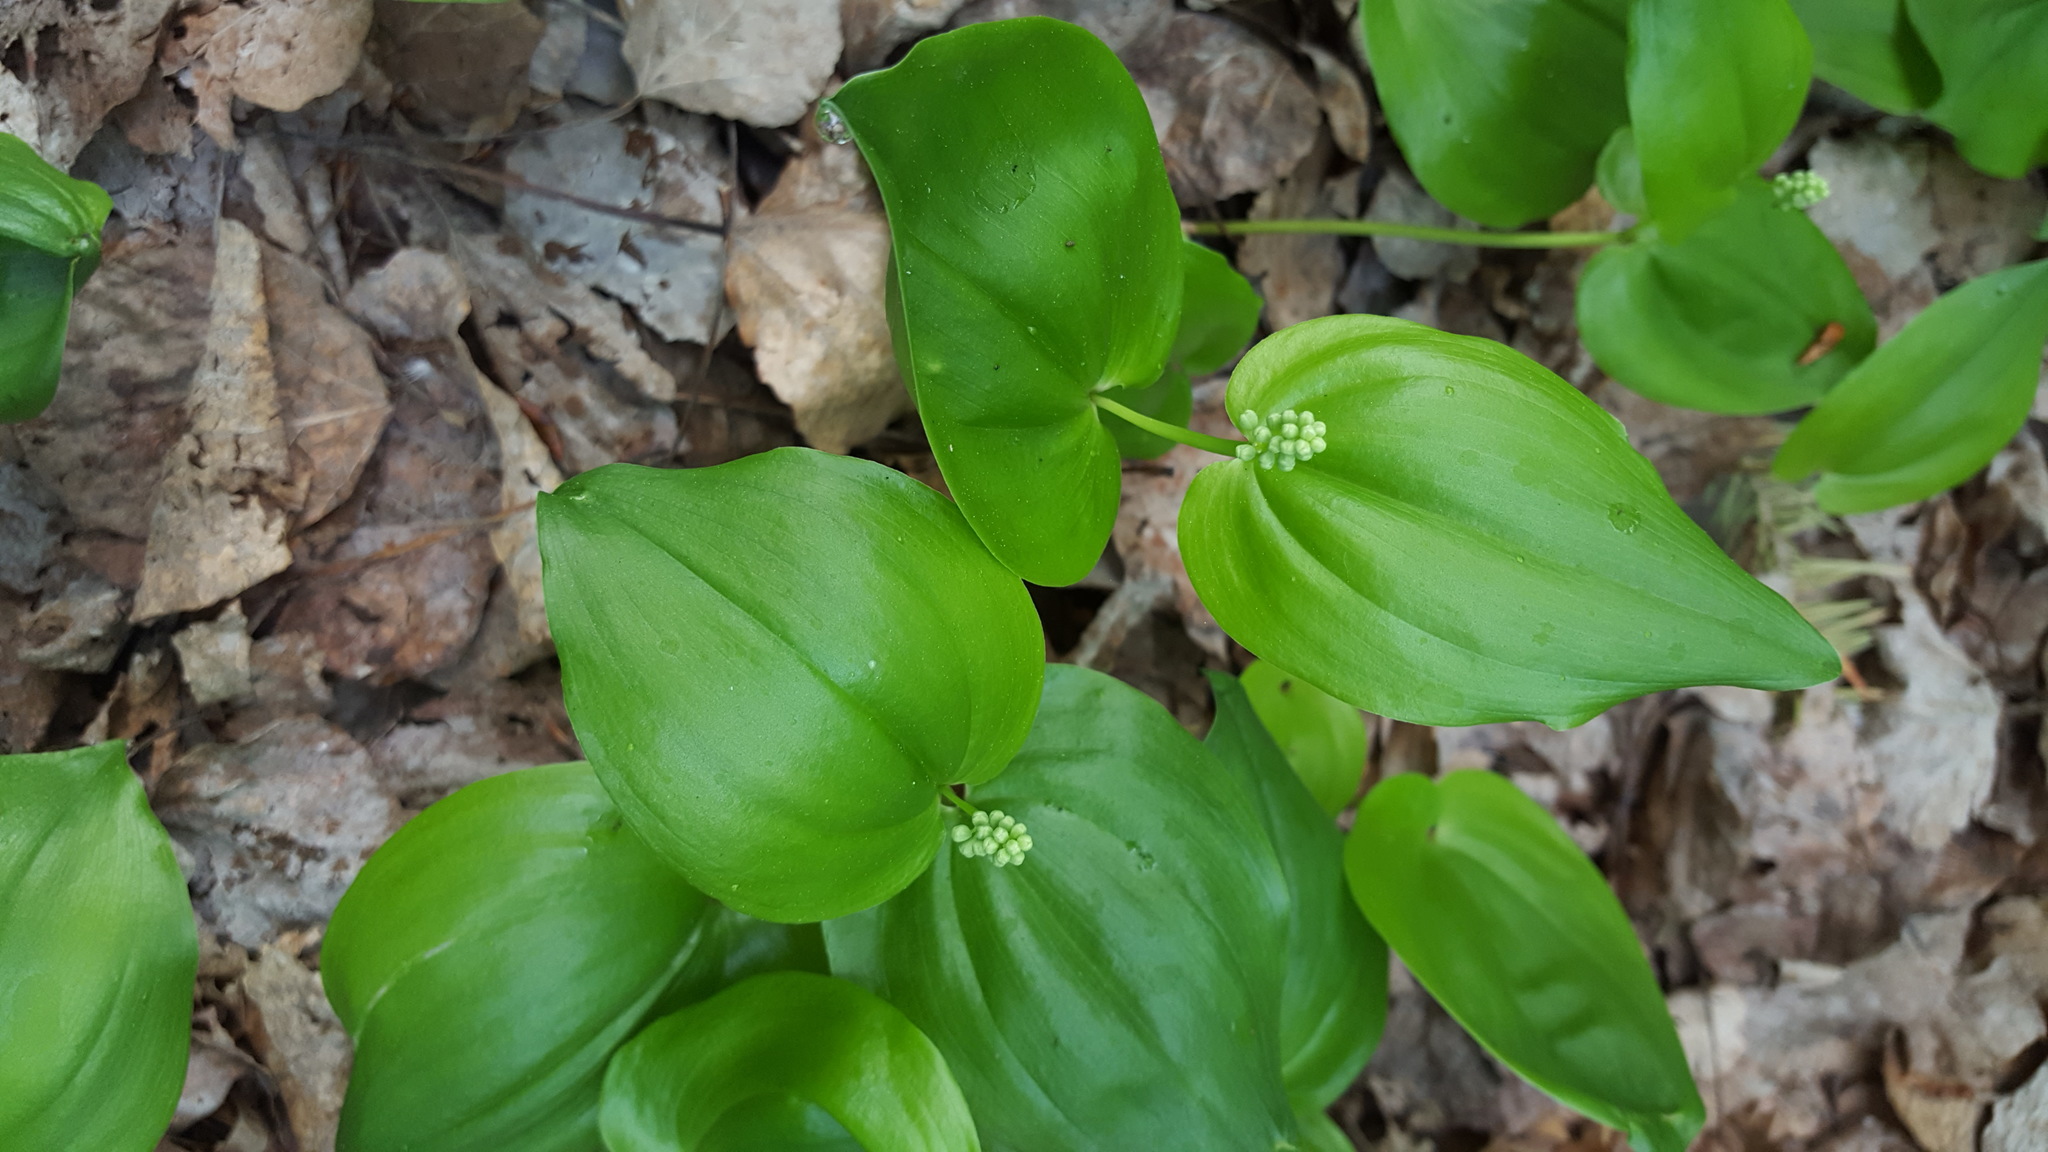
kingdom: Plantae
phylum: Tracheophyta
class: Liliopsida
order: Asparagales
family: Asparagaceae
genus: Maianthemum
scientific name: Maianthemum canadense
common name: False lily-of-the-valley
